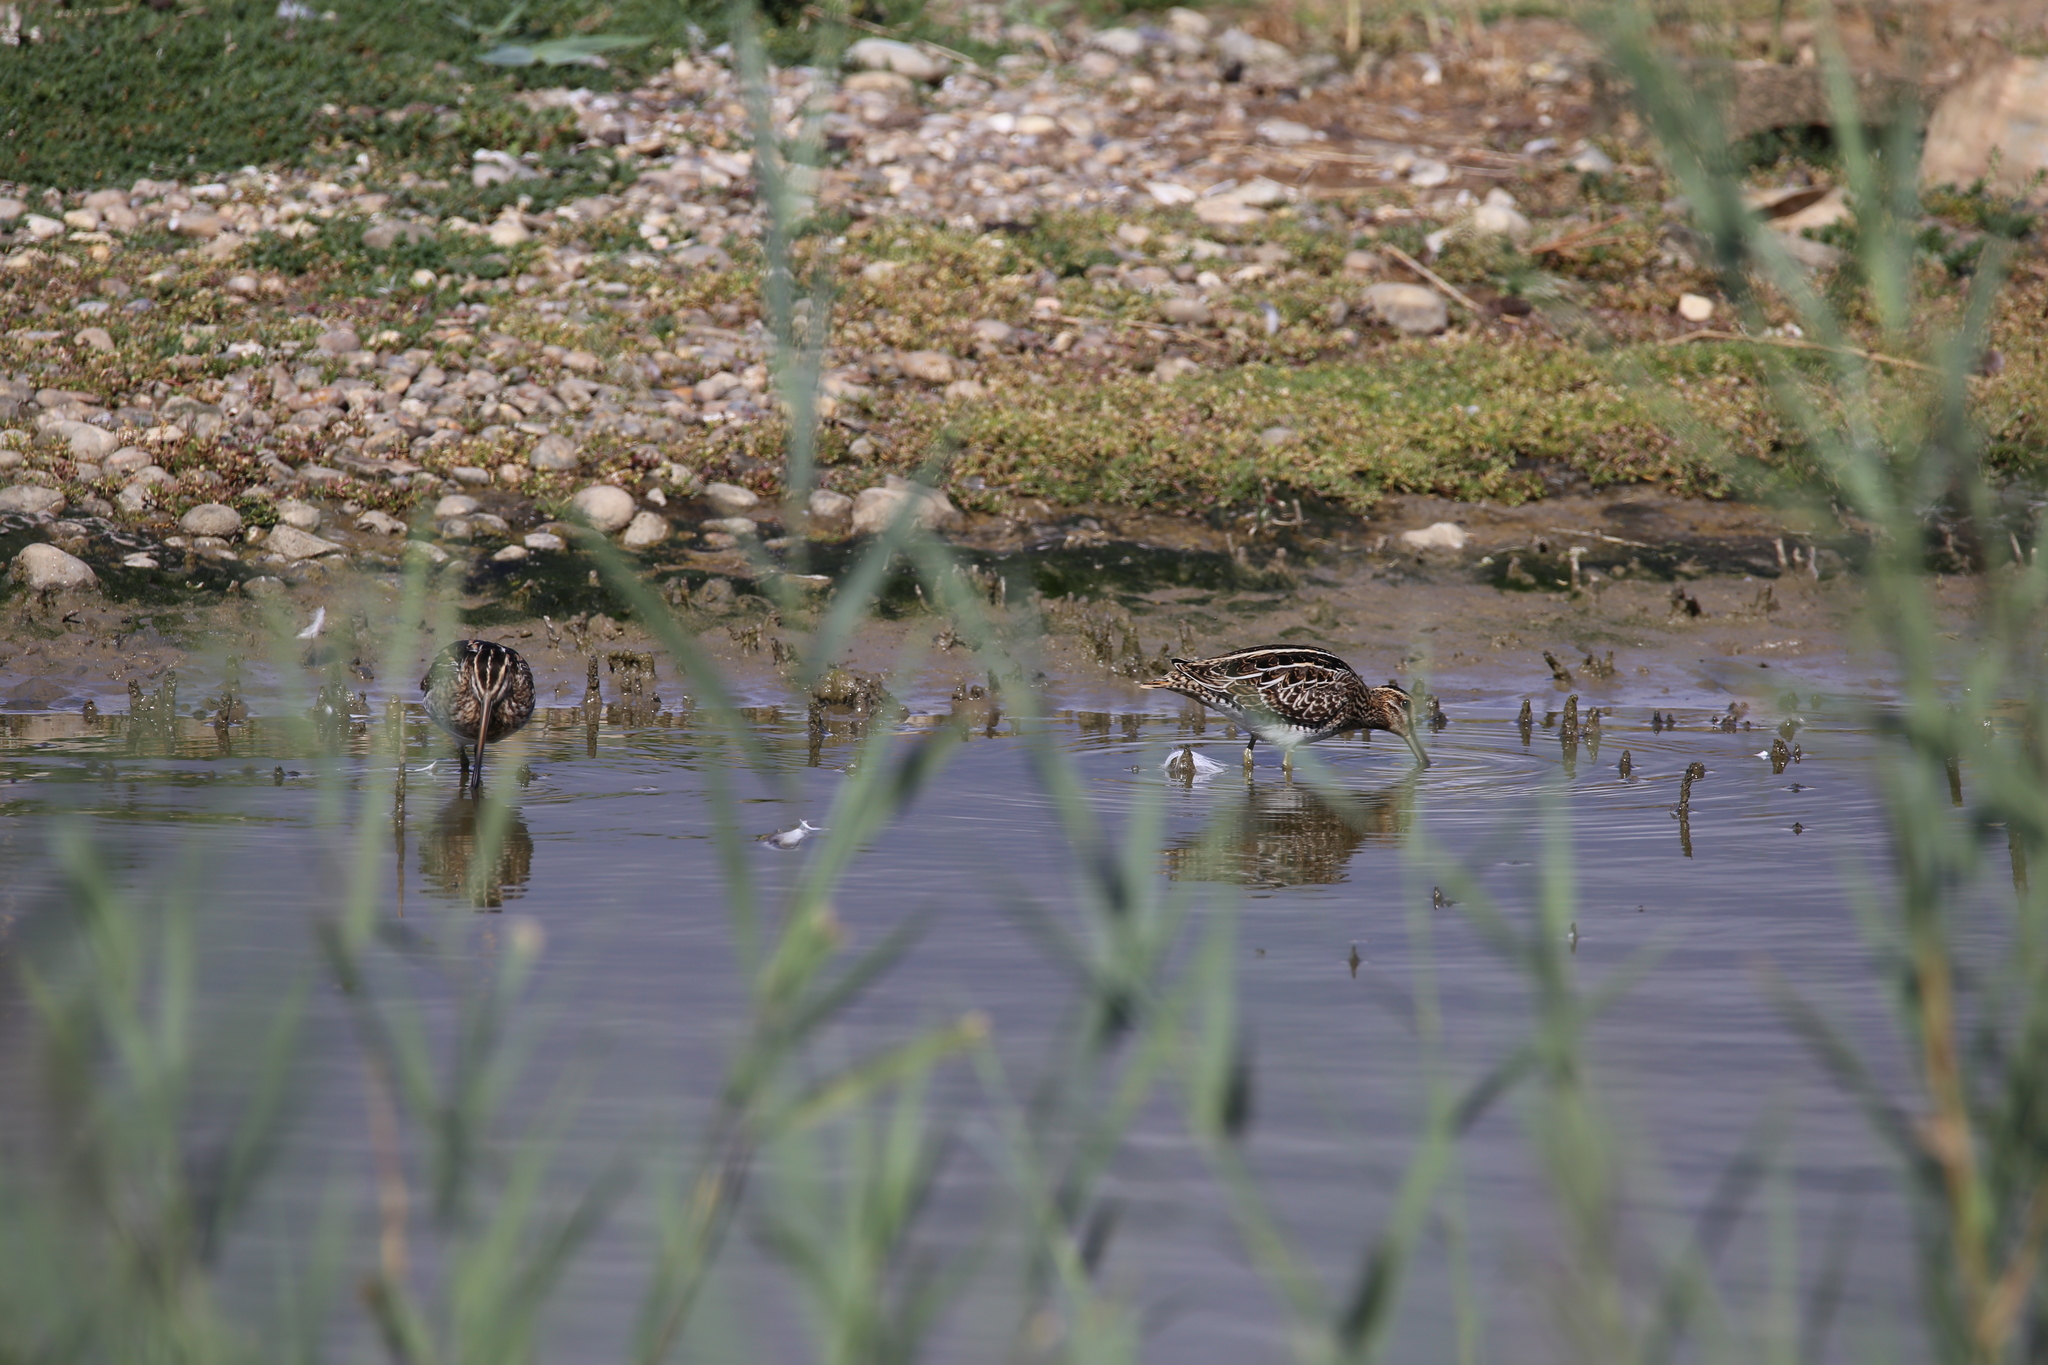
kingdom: Animalia
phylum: Chordata
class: Aves
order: Charadriiformes
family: Scolopacidae
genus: Gallinago
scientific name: Gallinago gallinago
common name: Common snipe
